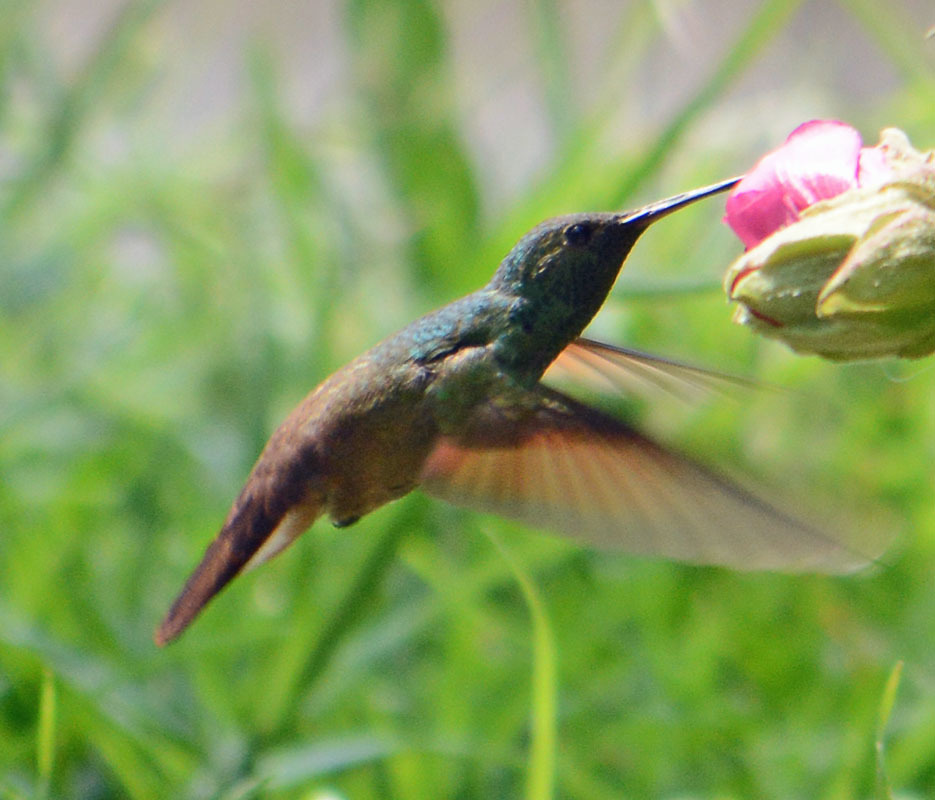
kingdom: Animalia
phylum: Chordata
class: Aves
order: Apodiformes
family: Trochilidae
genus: Saucerottia
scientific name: Saucerottia beryllina
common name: Berylline hummingbird
